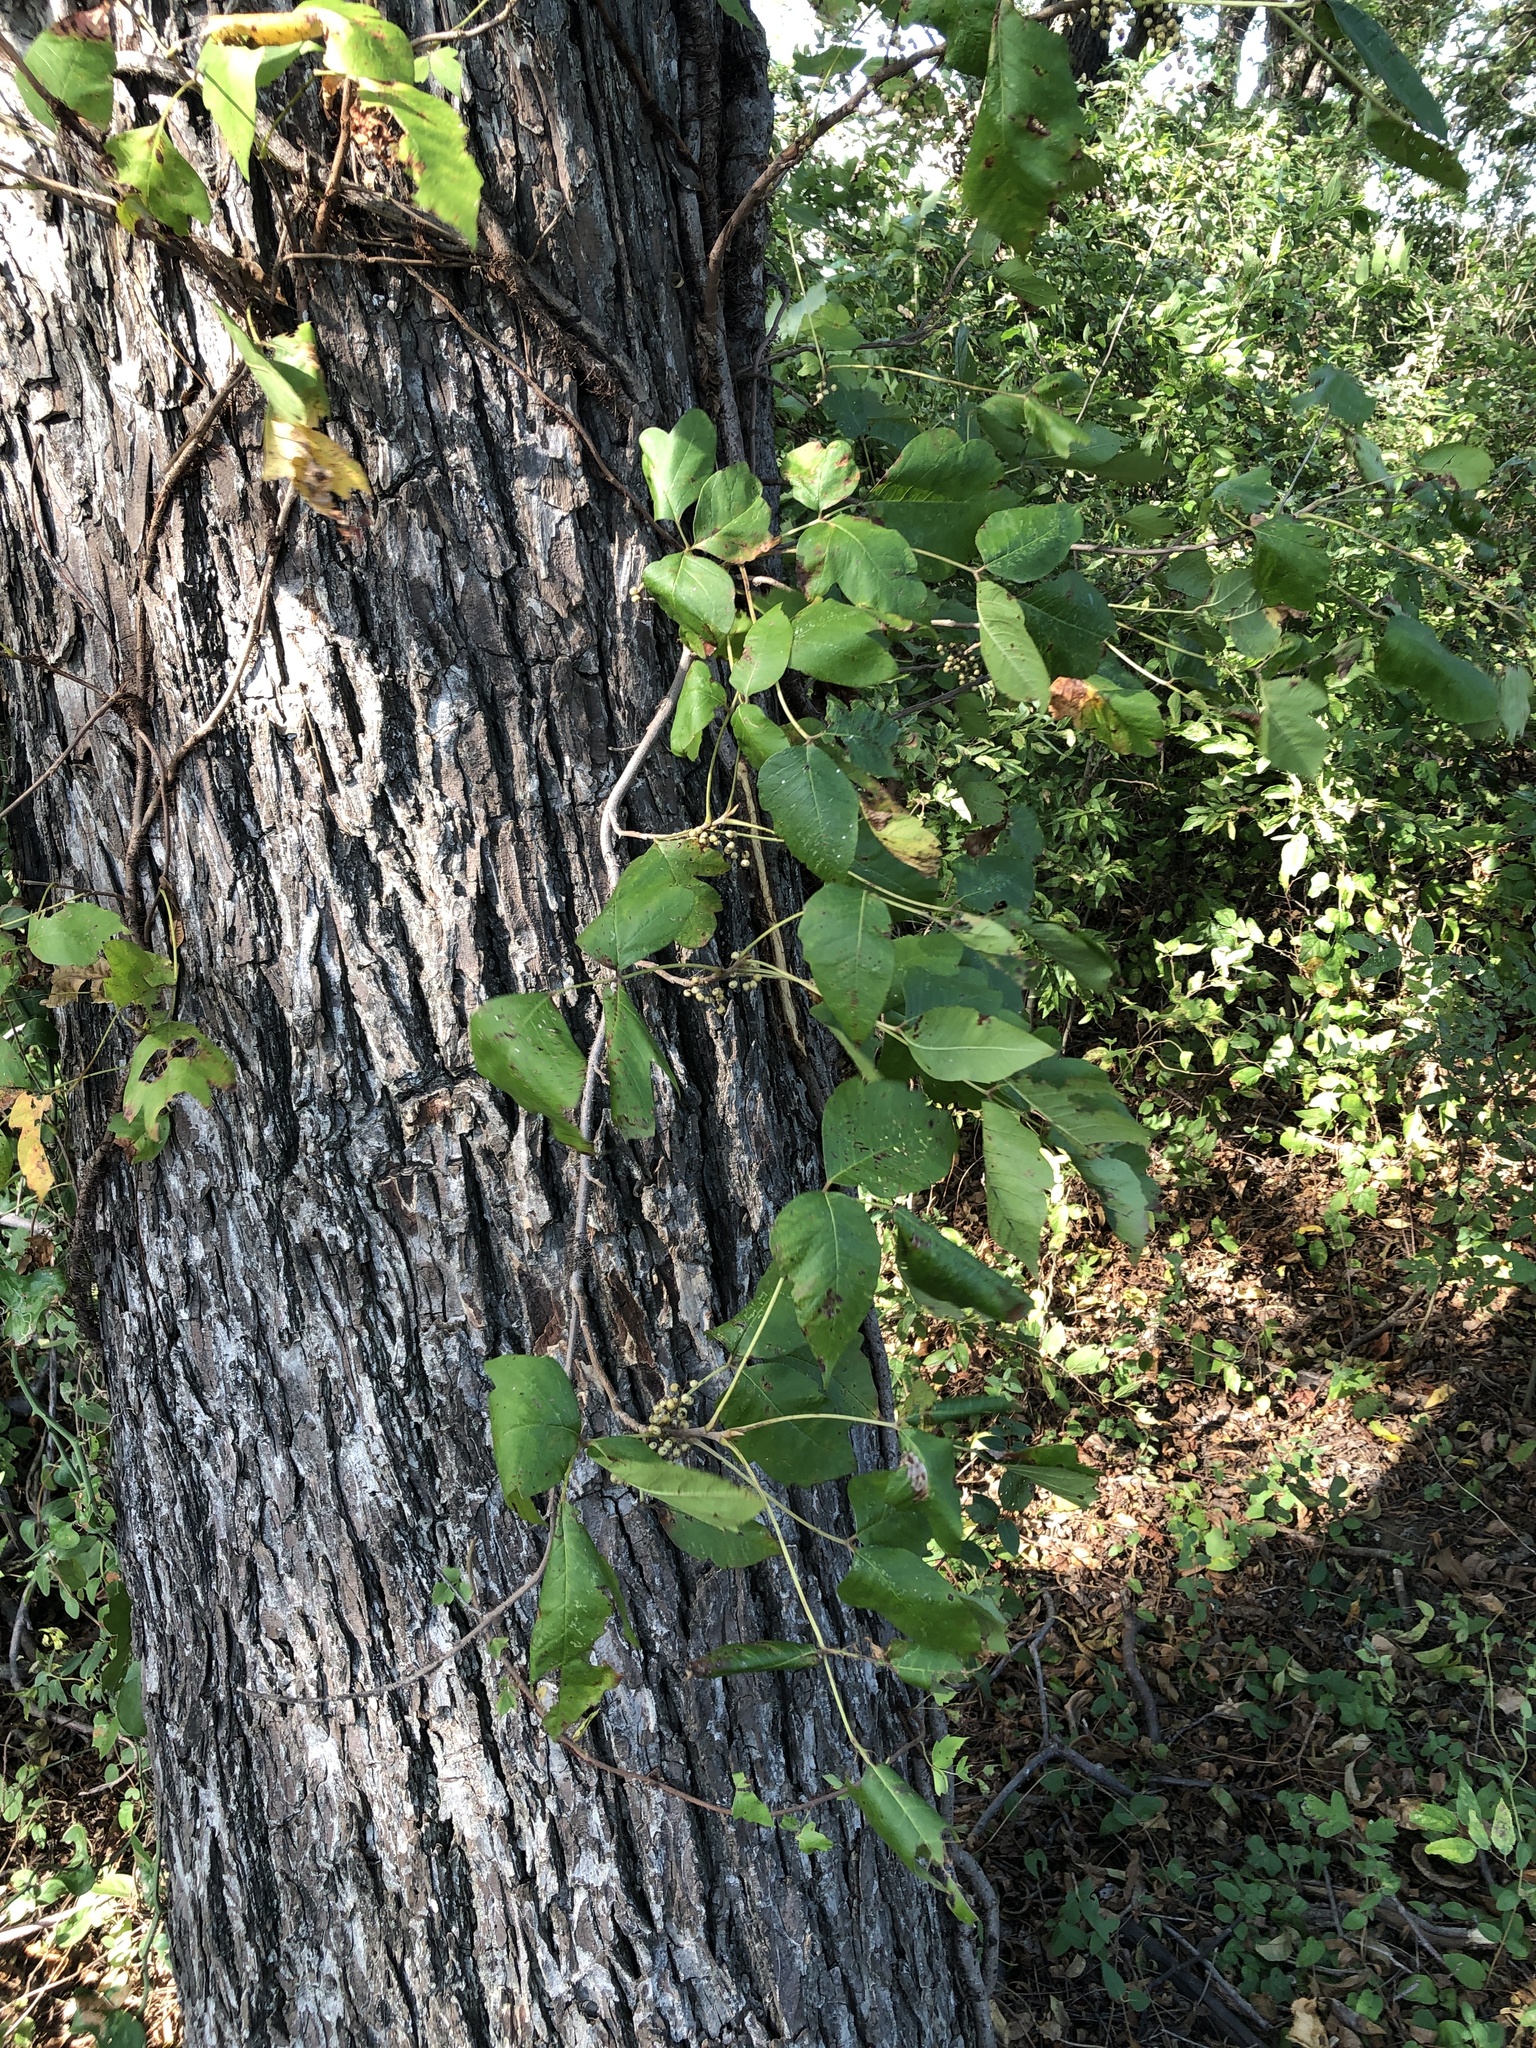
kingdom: Plantae
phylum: Tracheophyta
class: Magnoliopsida
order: Sapindales
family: Anacardiaceae
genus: Toxicodendron
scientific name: Toxicodendron radicans
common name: Poison ivy
